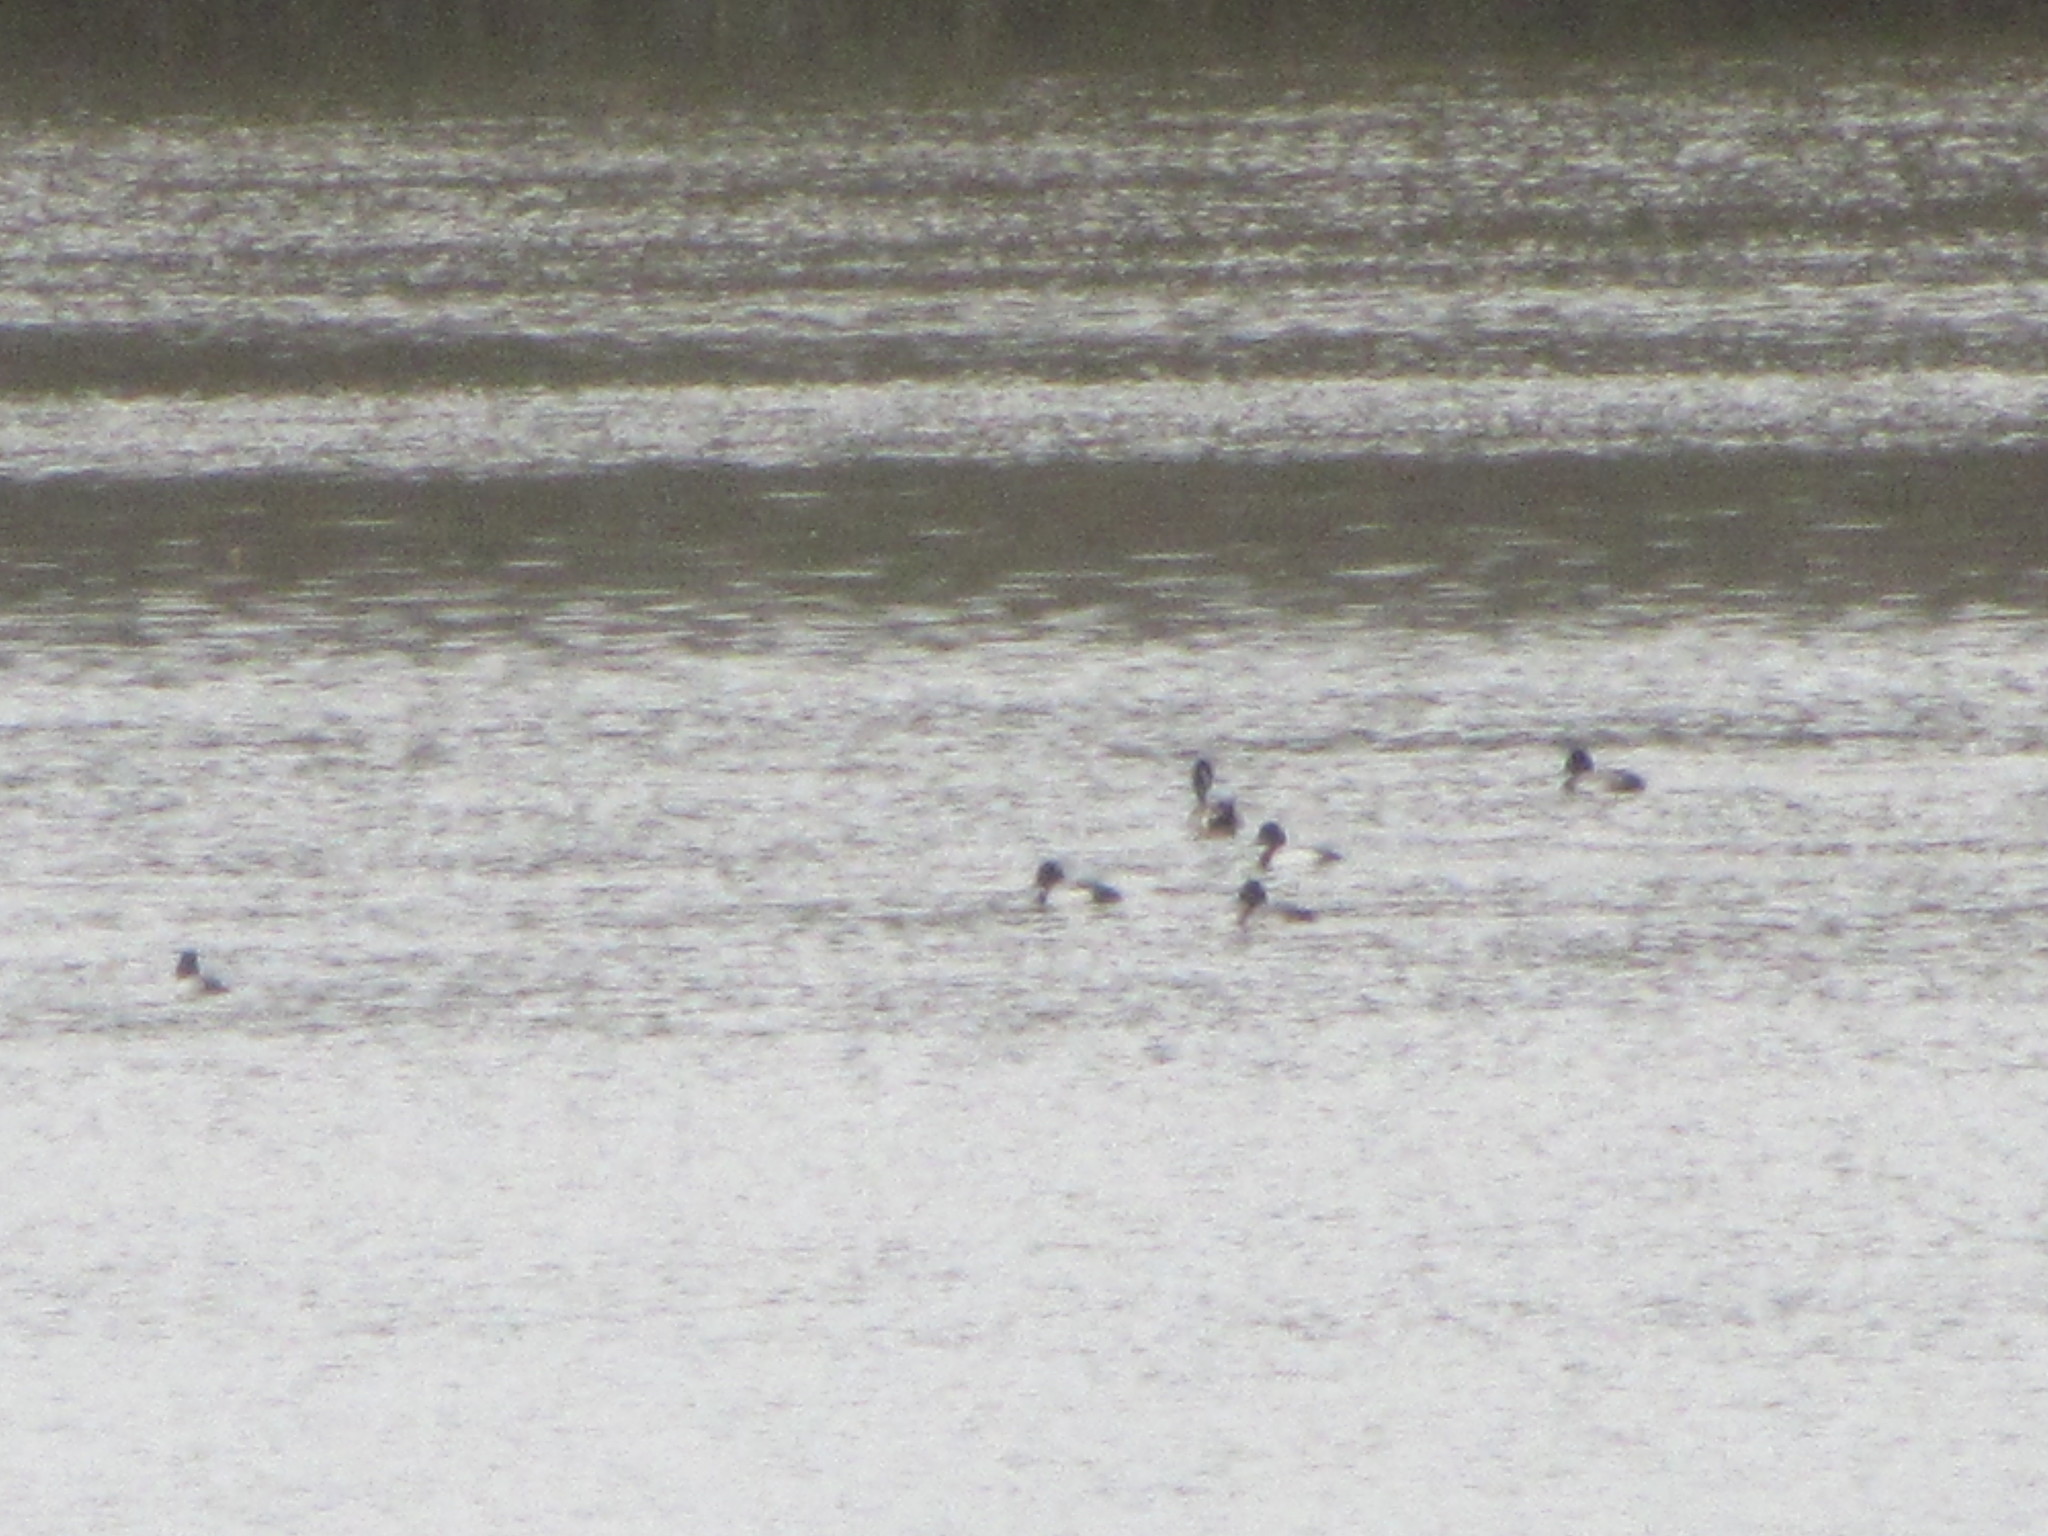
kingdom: Animalia
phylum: Chordata
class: Aves
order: Anseriformes
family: Anatidae
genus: Aythya
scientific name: Aythya affinis
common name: Lesser scaup
